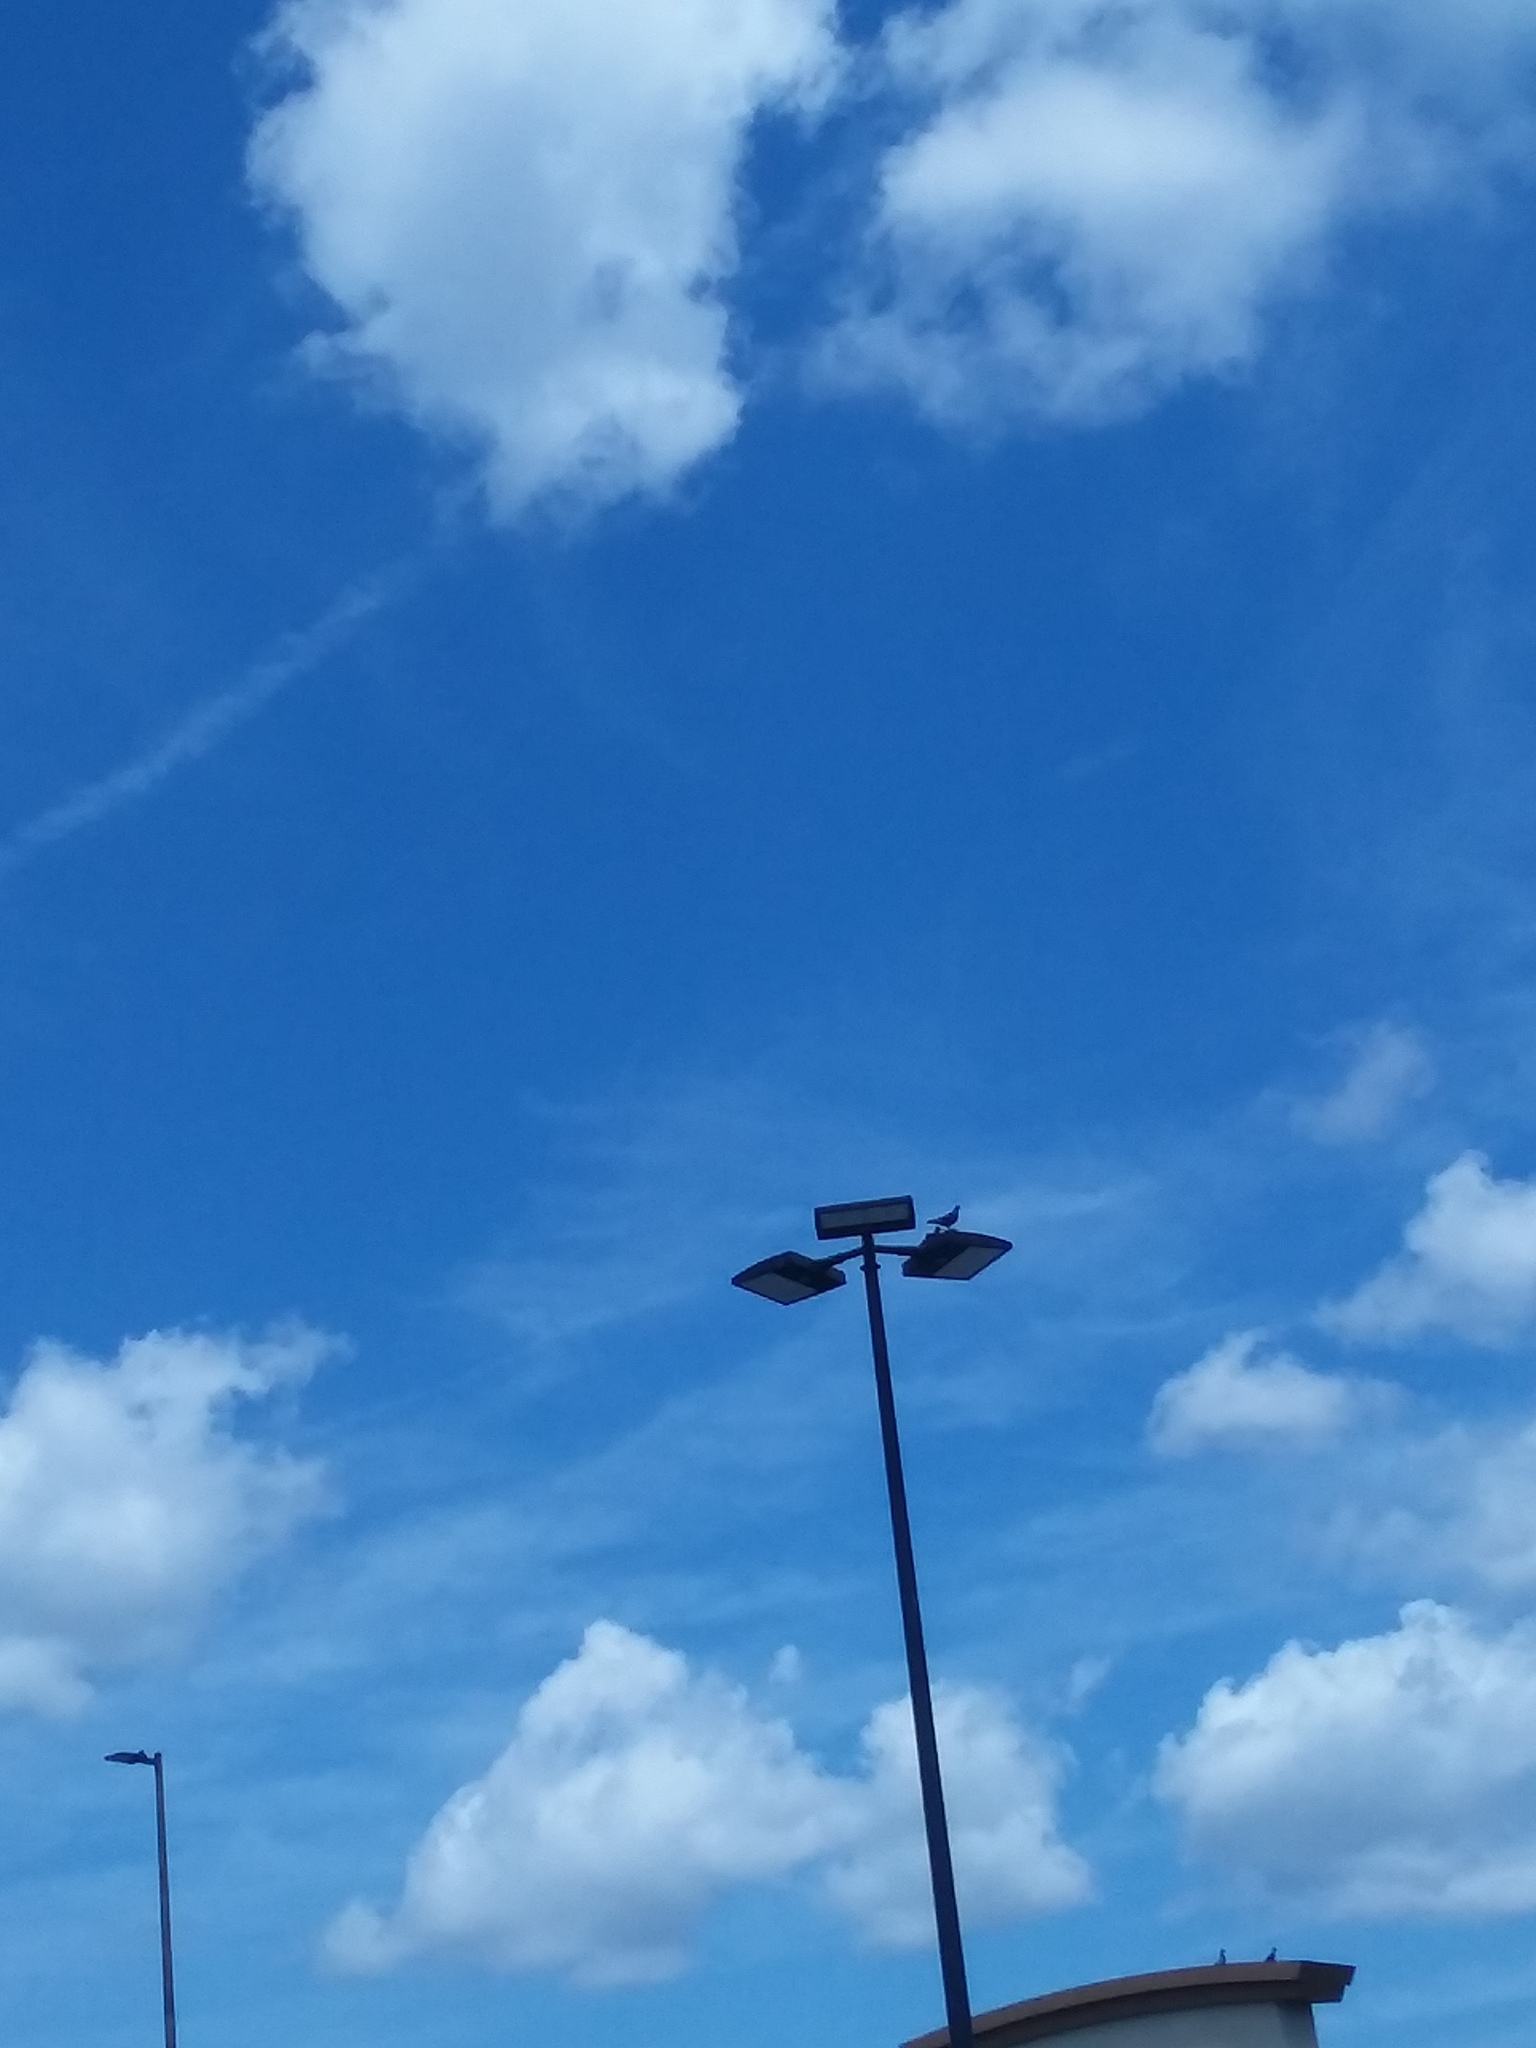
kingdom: Animalia
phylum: Chordata
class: Aves
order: Columbiformes
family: Columbidae
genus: Columba
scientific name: Columba livia
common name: Rock pigeon
